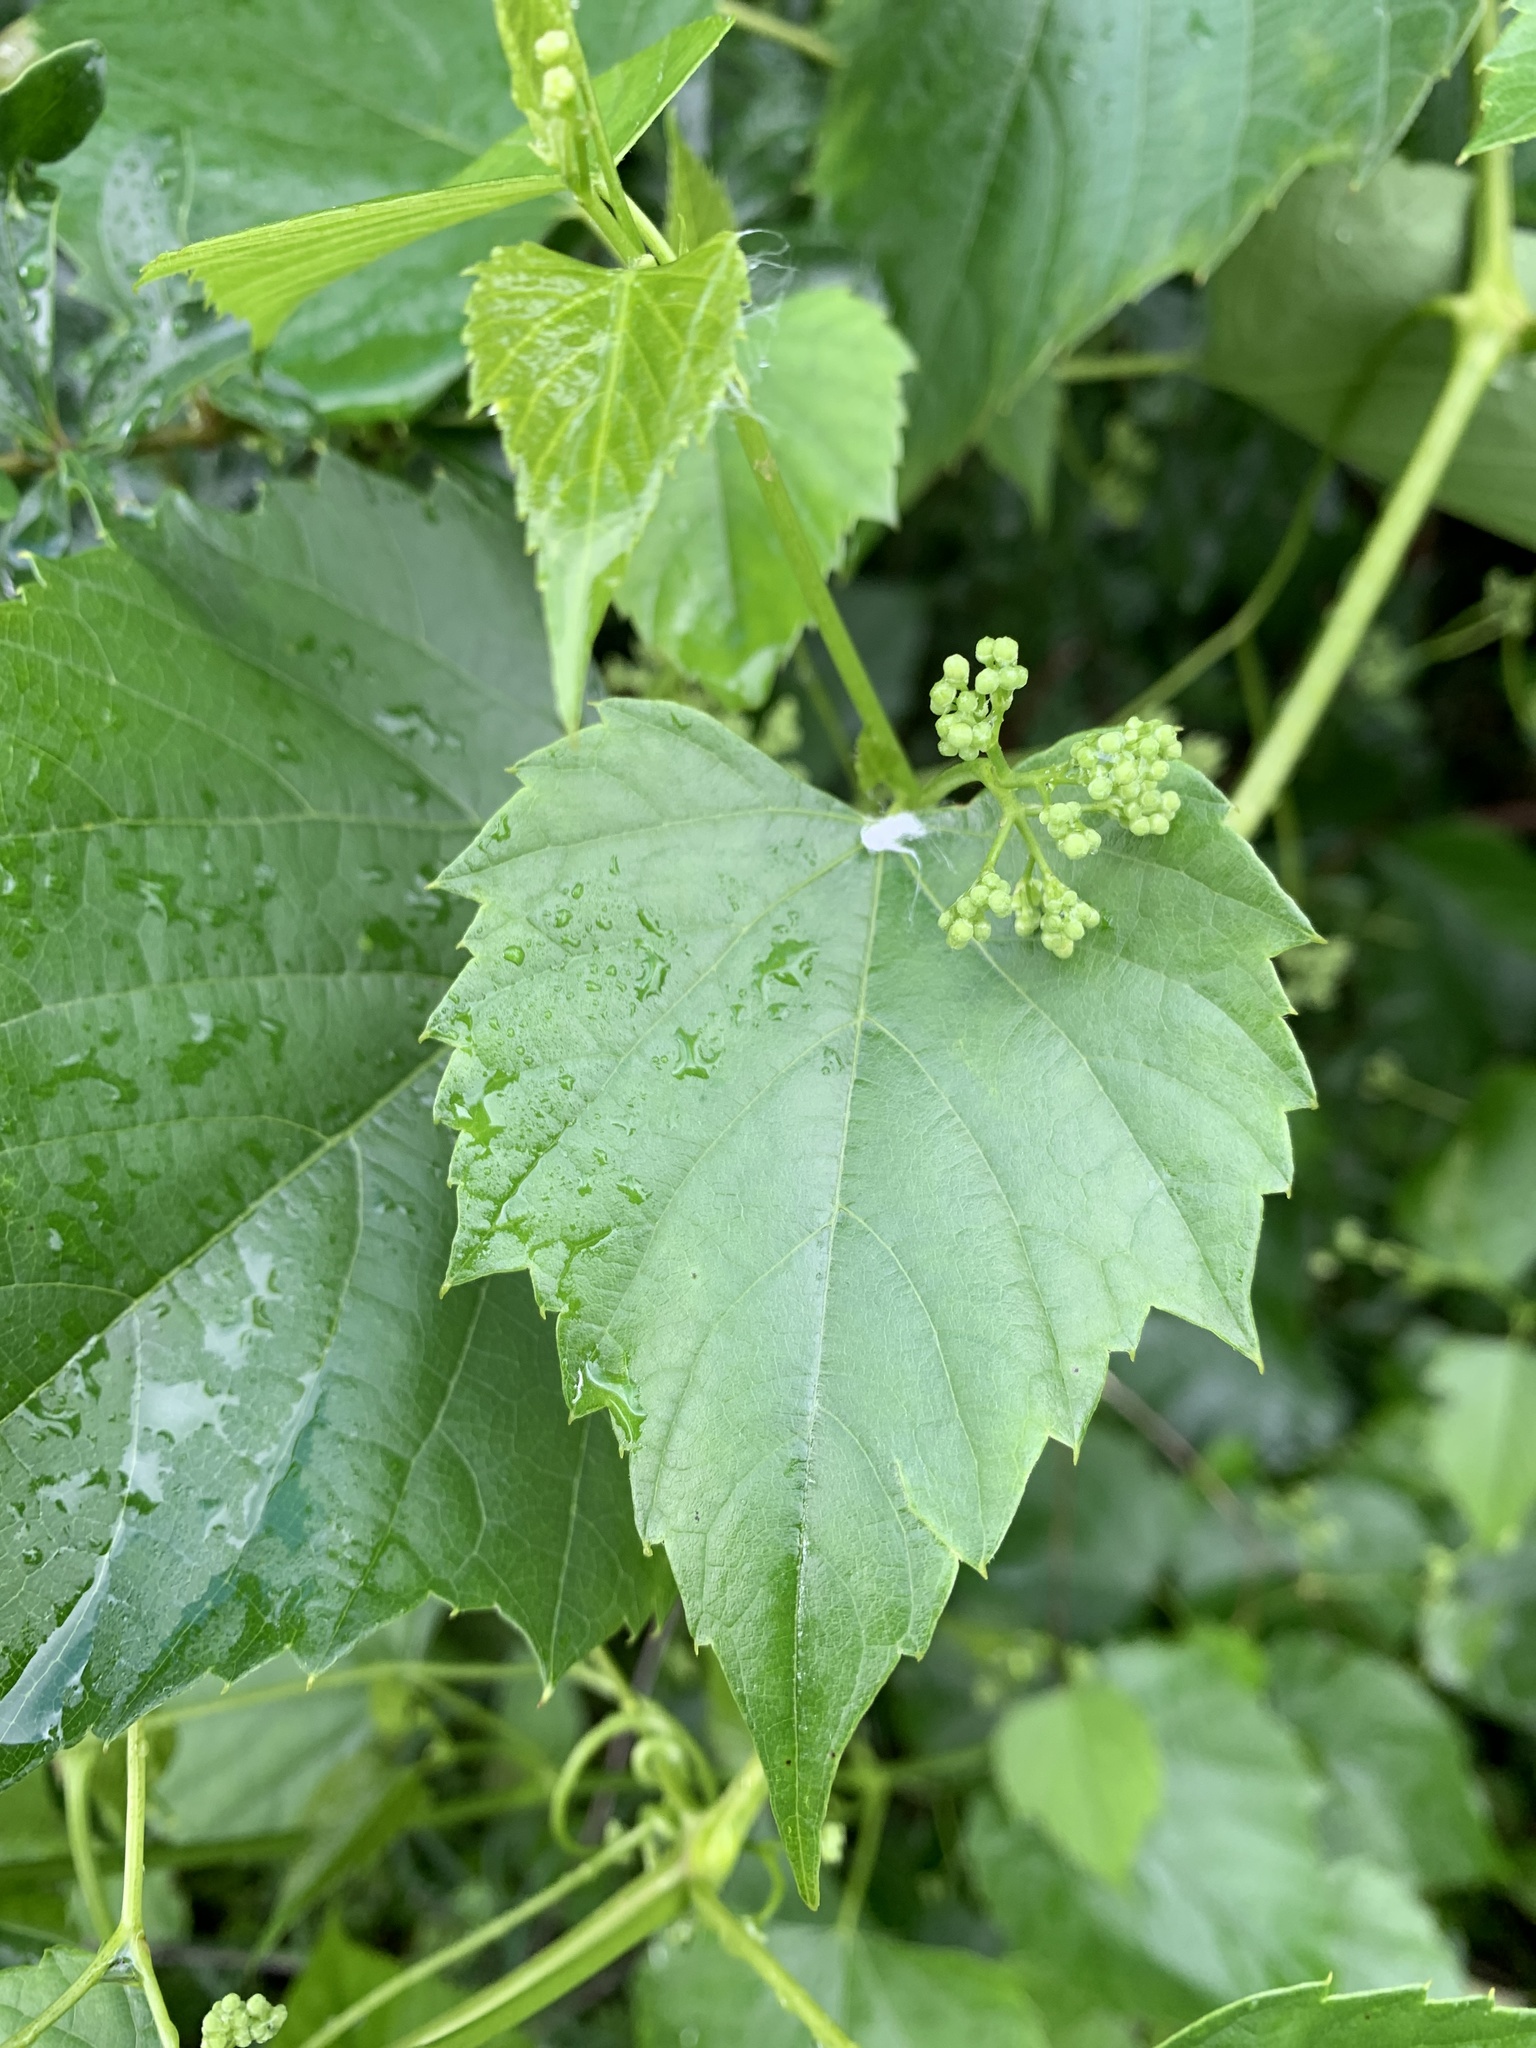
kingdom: Plantae
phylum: Tracheophyta
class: Magnoliopsida
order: Vitales
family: Vitaceae
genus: Ampelopsis
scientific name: Ampelopsis cordata
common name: Heart-leaf ampelopsis
